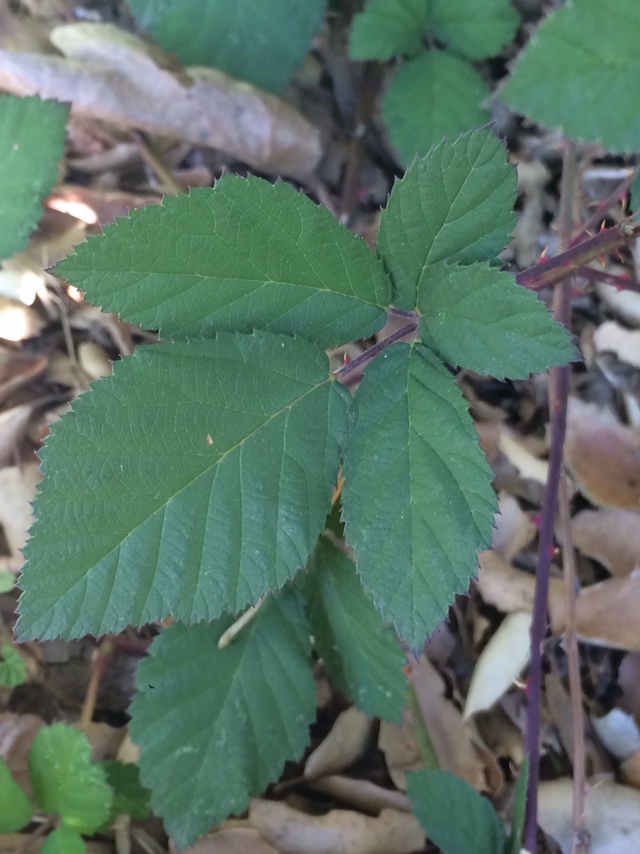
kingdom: Plantae
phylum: Tracheophyta
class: Magnoliopsida
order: Rosales
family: Rosaceae
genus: Rubus
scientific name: Rubus armeniacus
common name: Himalayan blackberry
